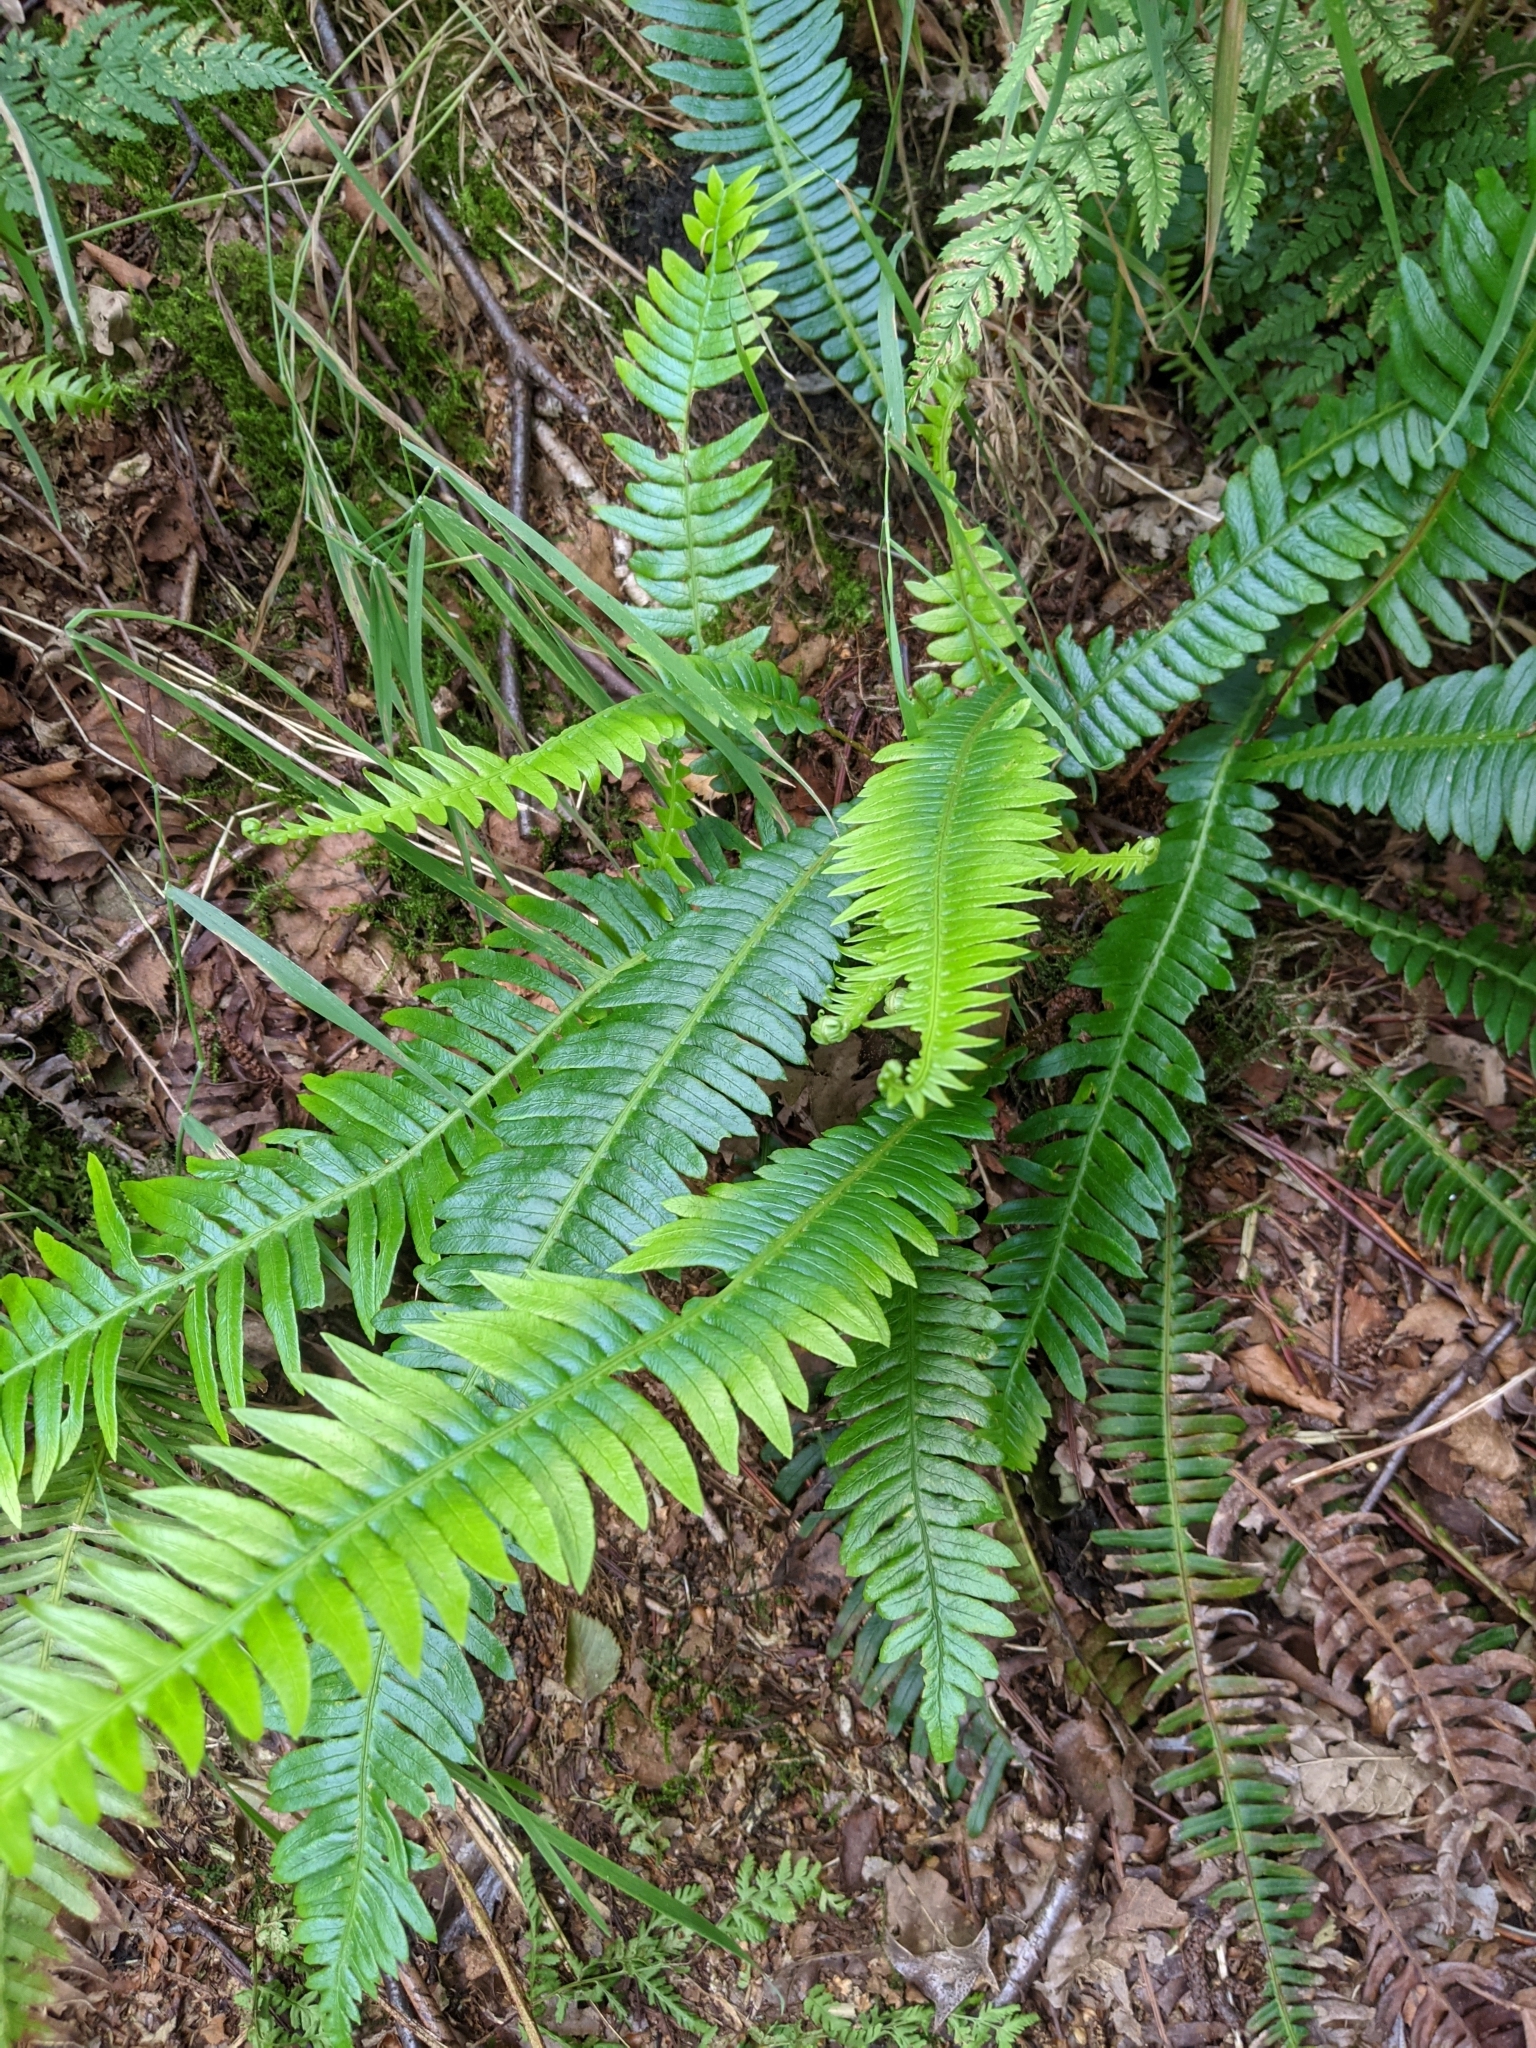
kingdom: Plantae
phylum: Tracheophyta
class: Polypodiopsida
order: Polypodiales
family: Blechnaceae
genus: Struthiopteris
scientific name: Struthiopteris spicant
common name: Deer fern
